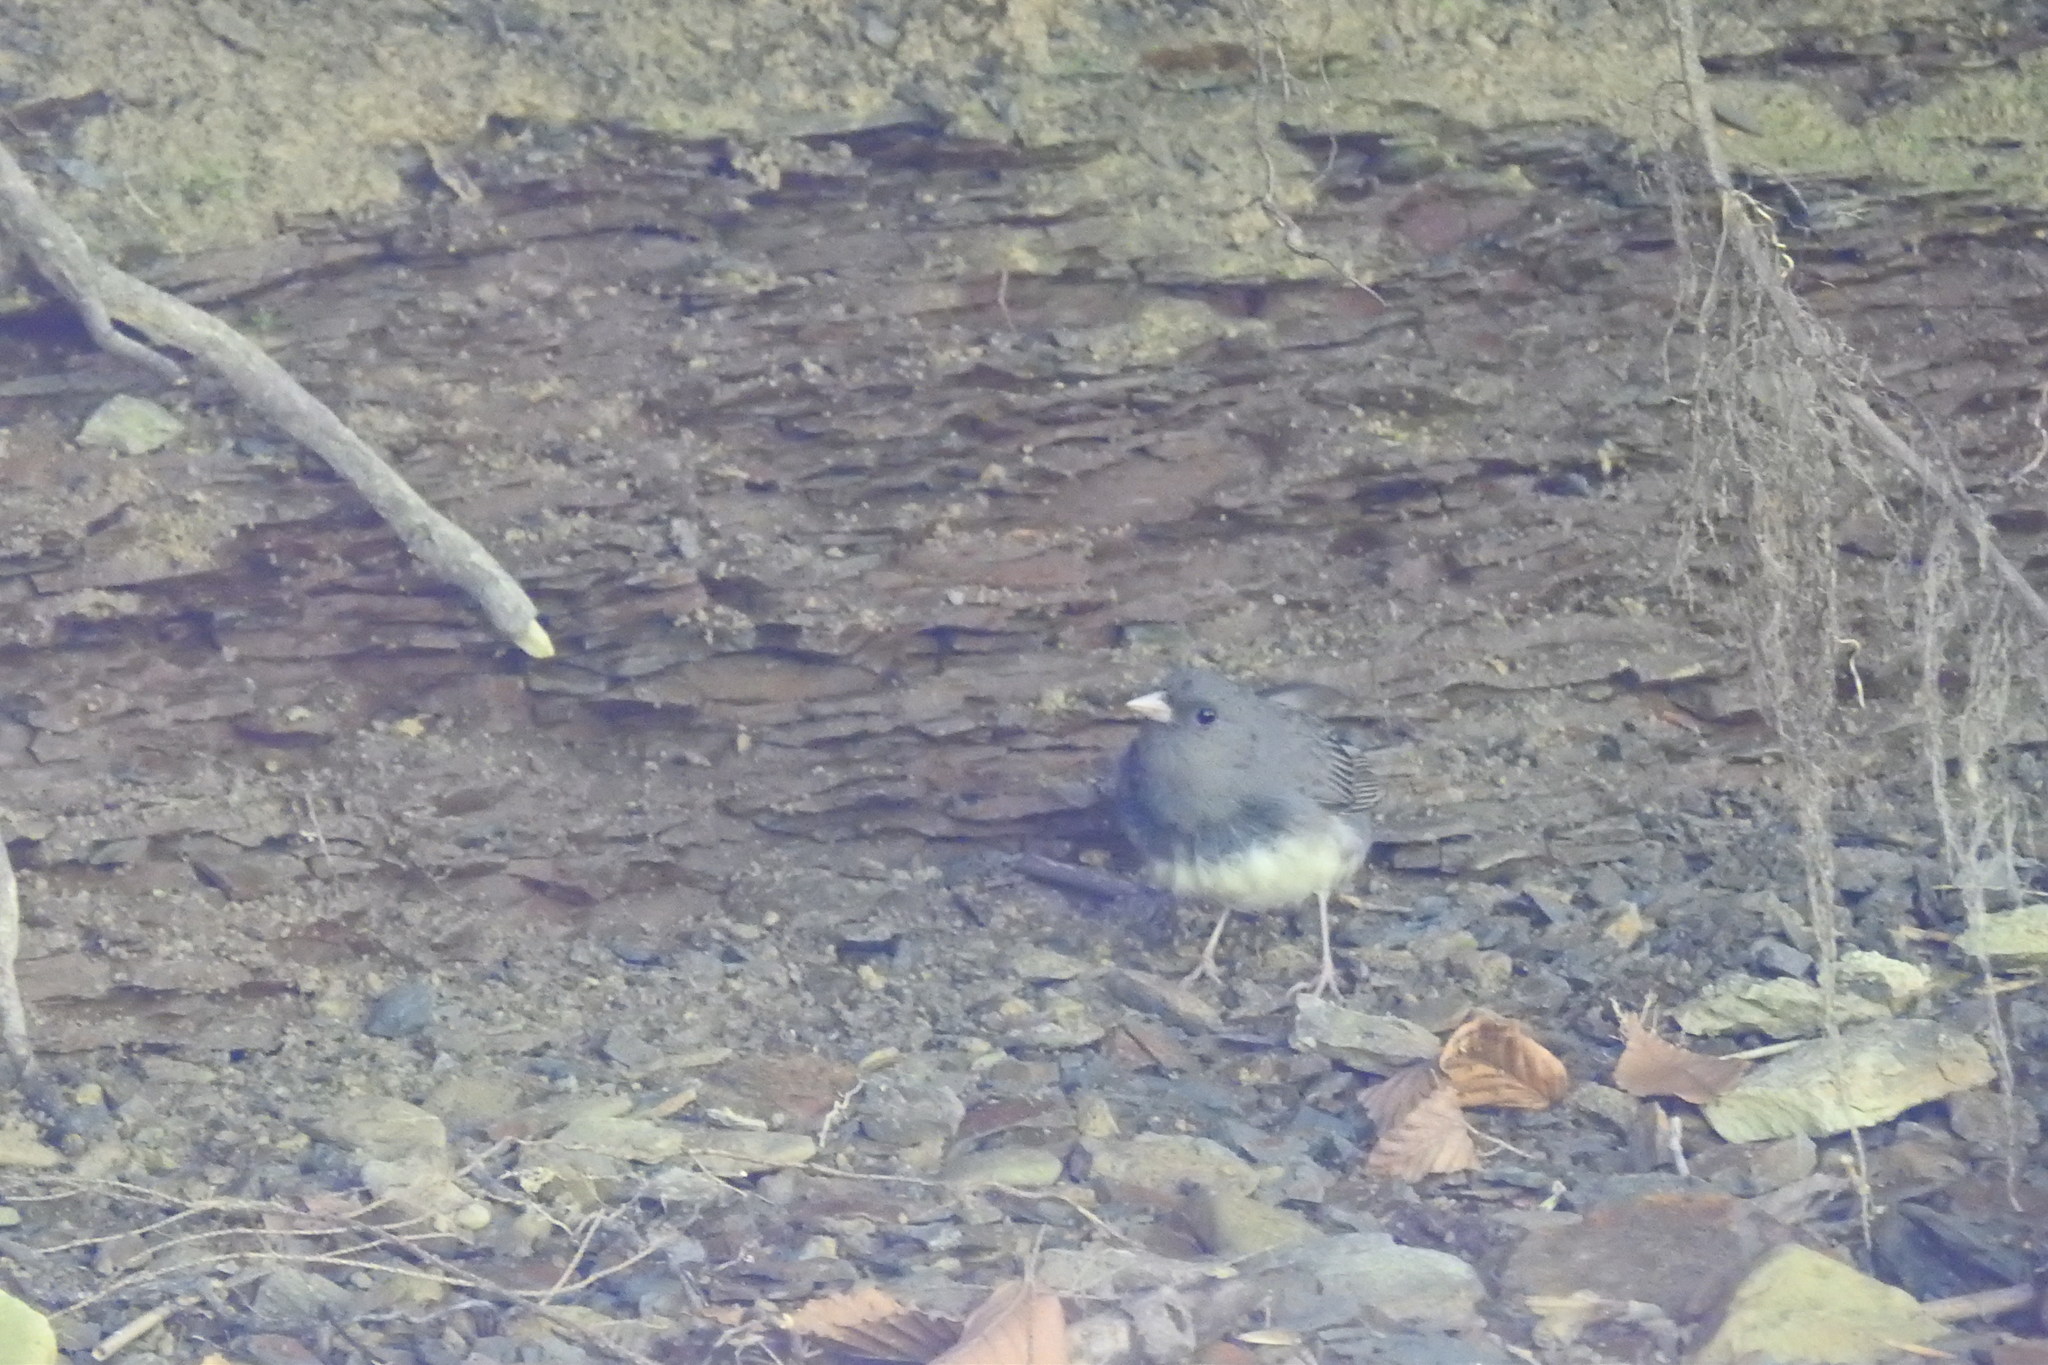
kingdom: Animalia
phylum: Chordata
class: Aves
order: Passeriformes
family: Passerellidae
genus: Junco
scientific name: Junco hyemalis
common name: Dark-eyed junco
